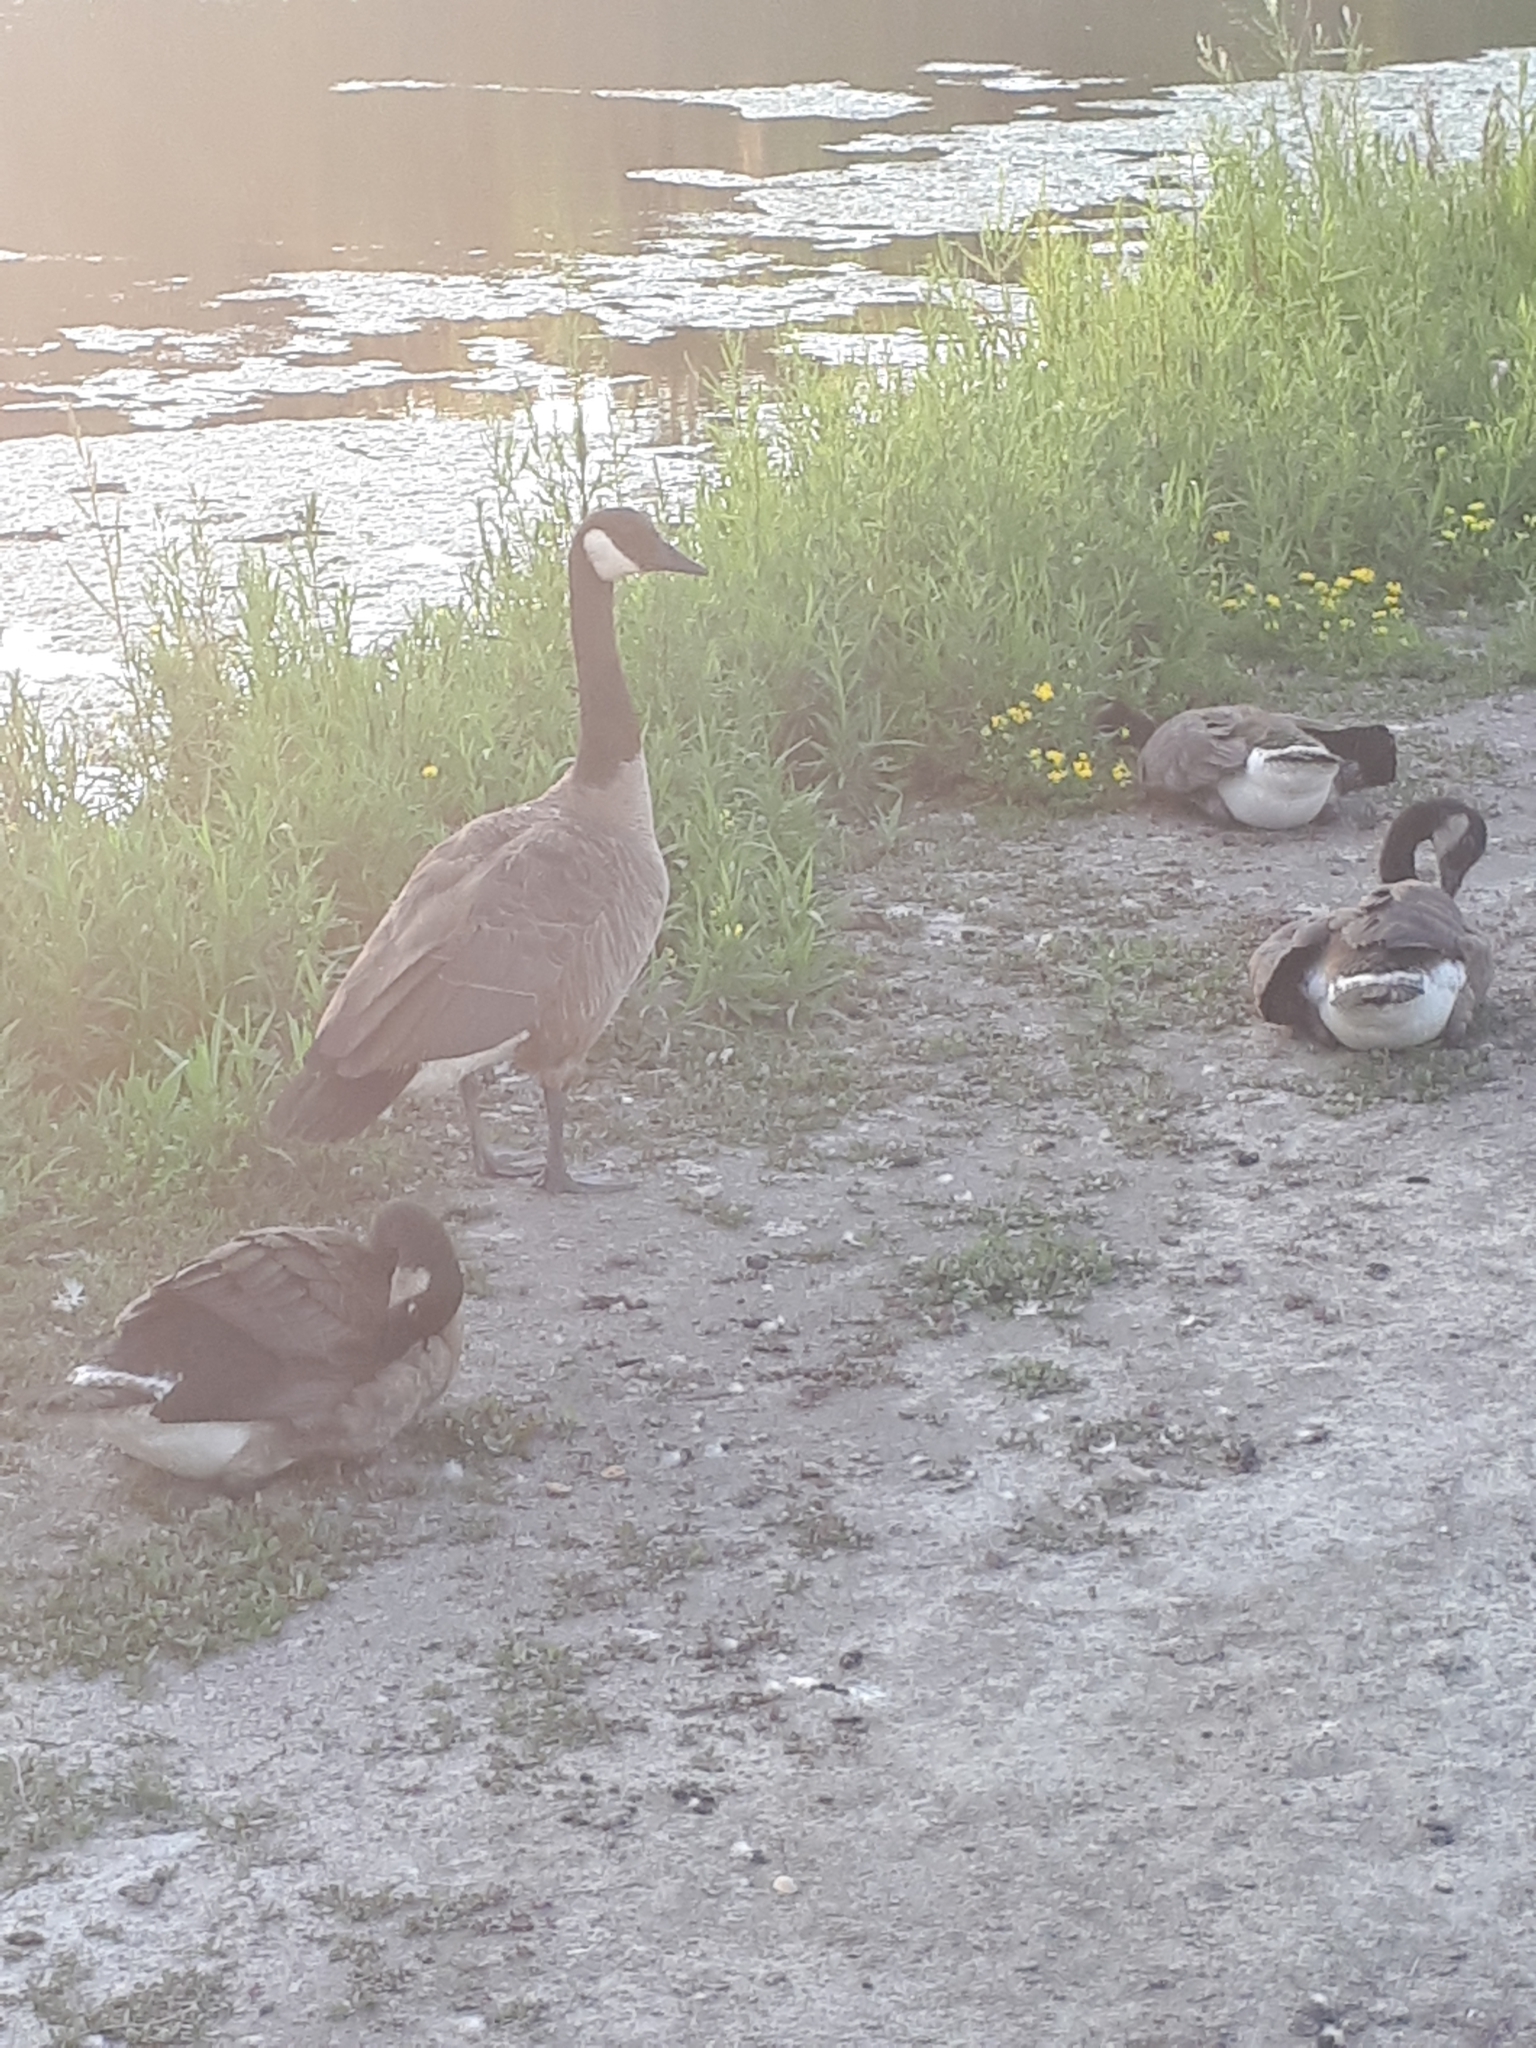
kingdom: Animalia
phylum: Chordata
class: Aves
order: Anseriformes
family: Anatidae
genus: Branta
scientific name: Branta canadensis
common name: Canada goose
